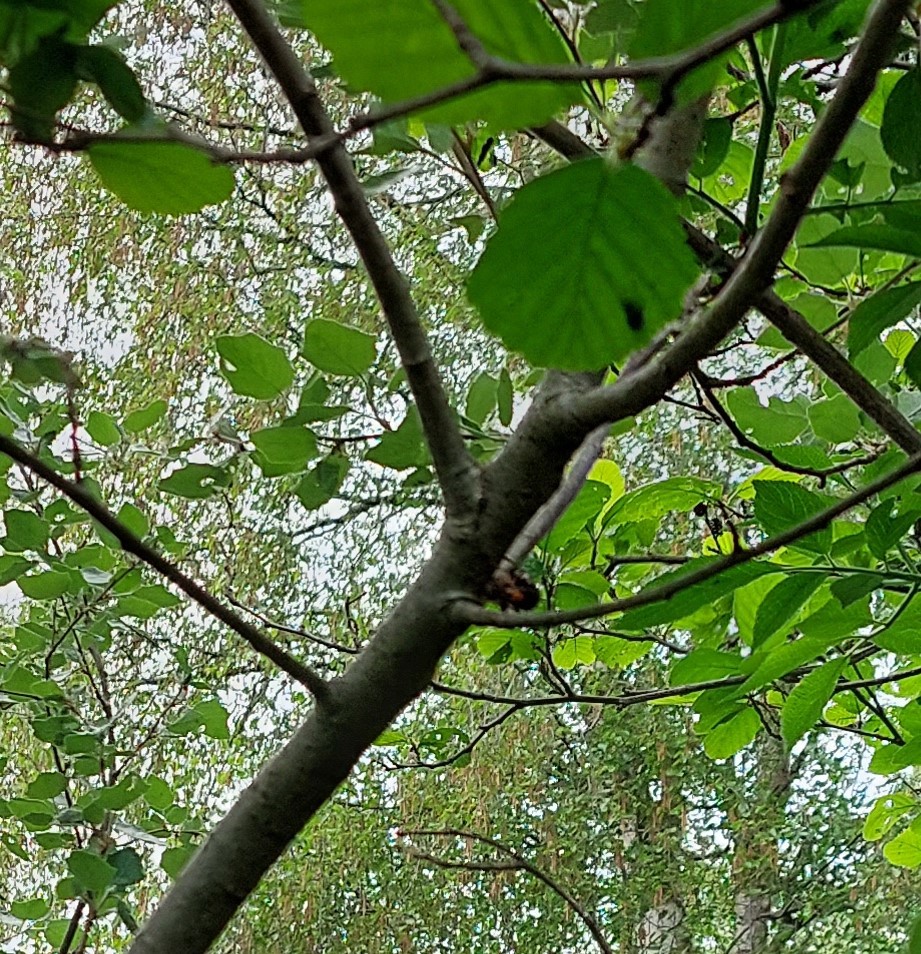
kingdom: Animalia
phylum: Arthropoda
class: Insecta
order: Hymenoptera
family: Vespidae
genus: Vespa
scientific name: Vespa velutina
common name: Asian hornet
